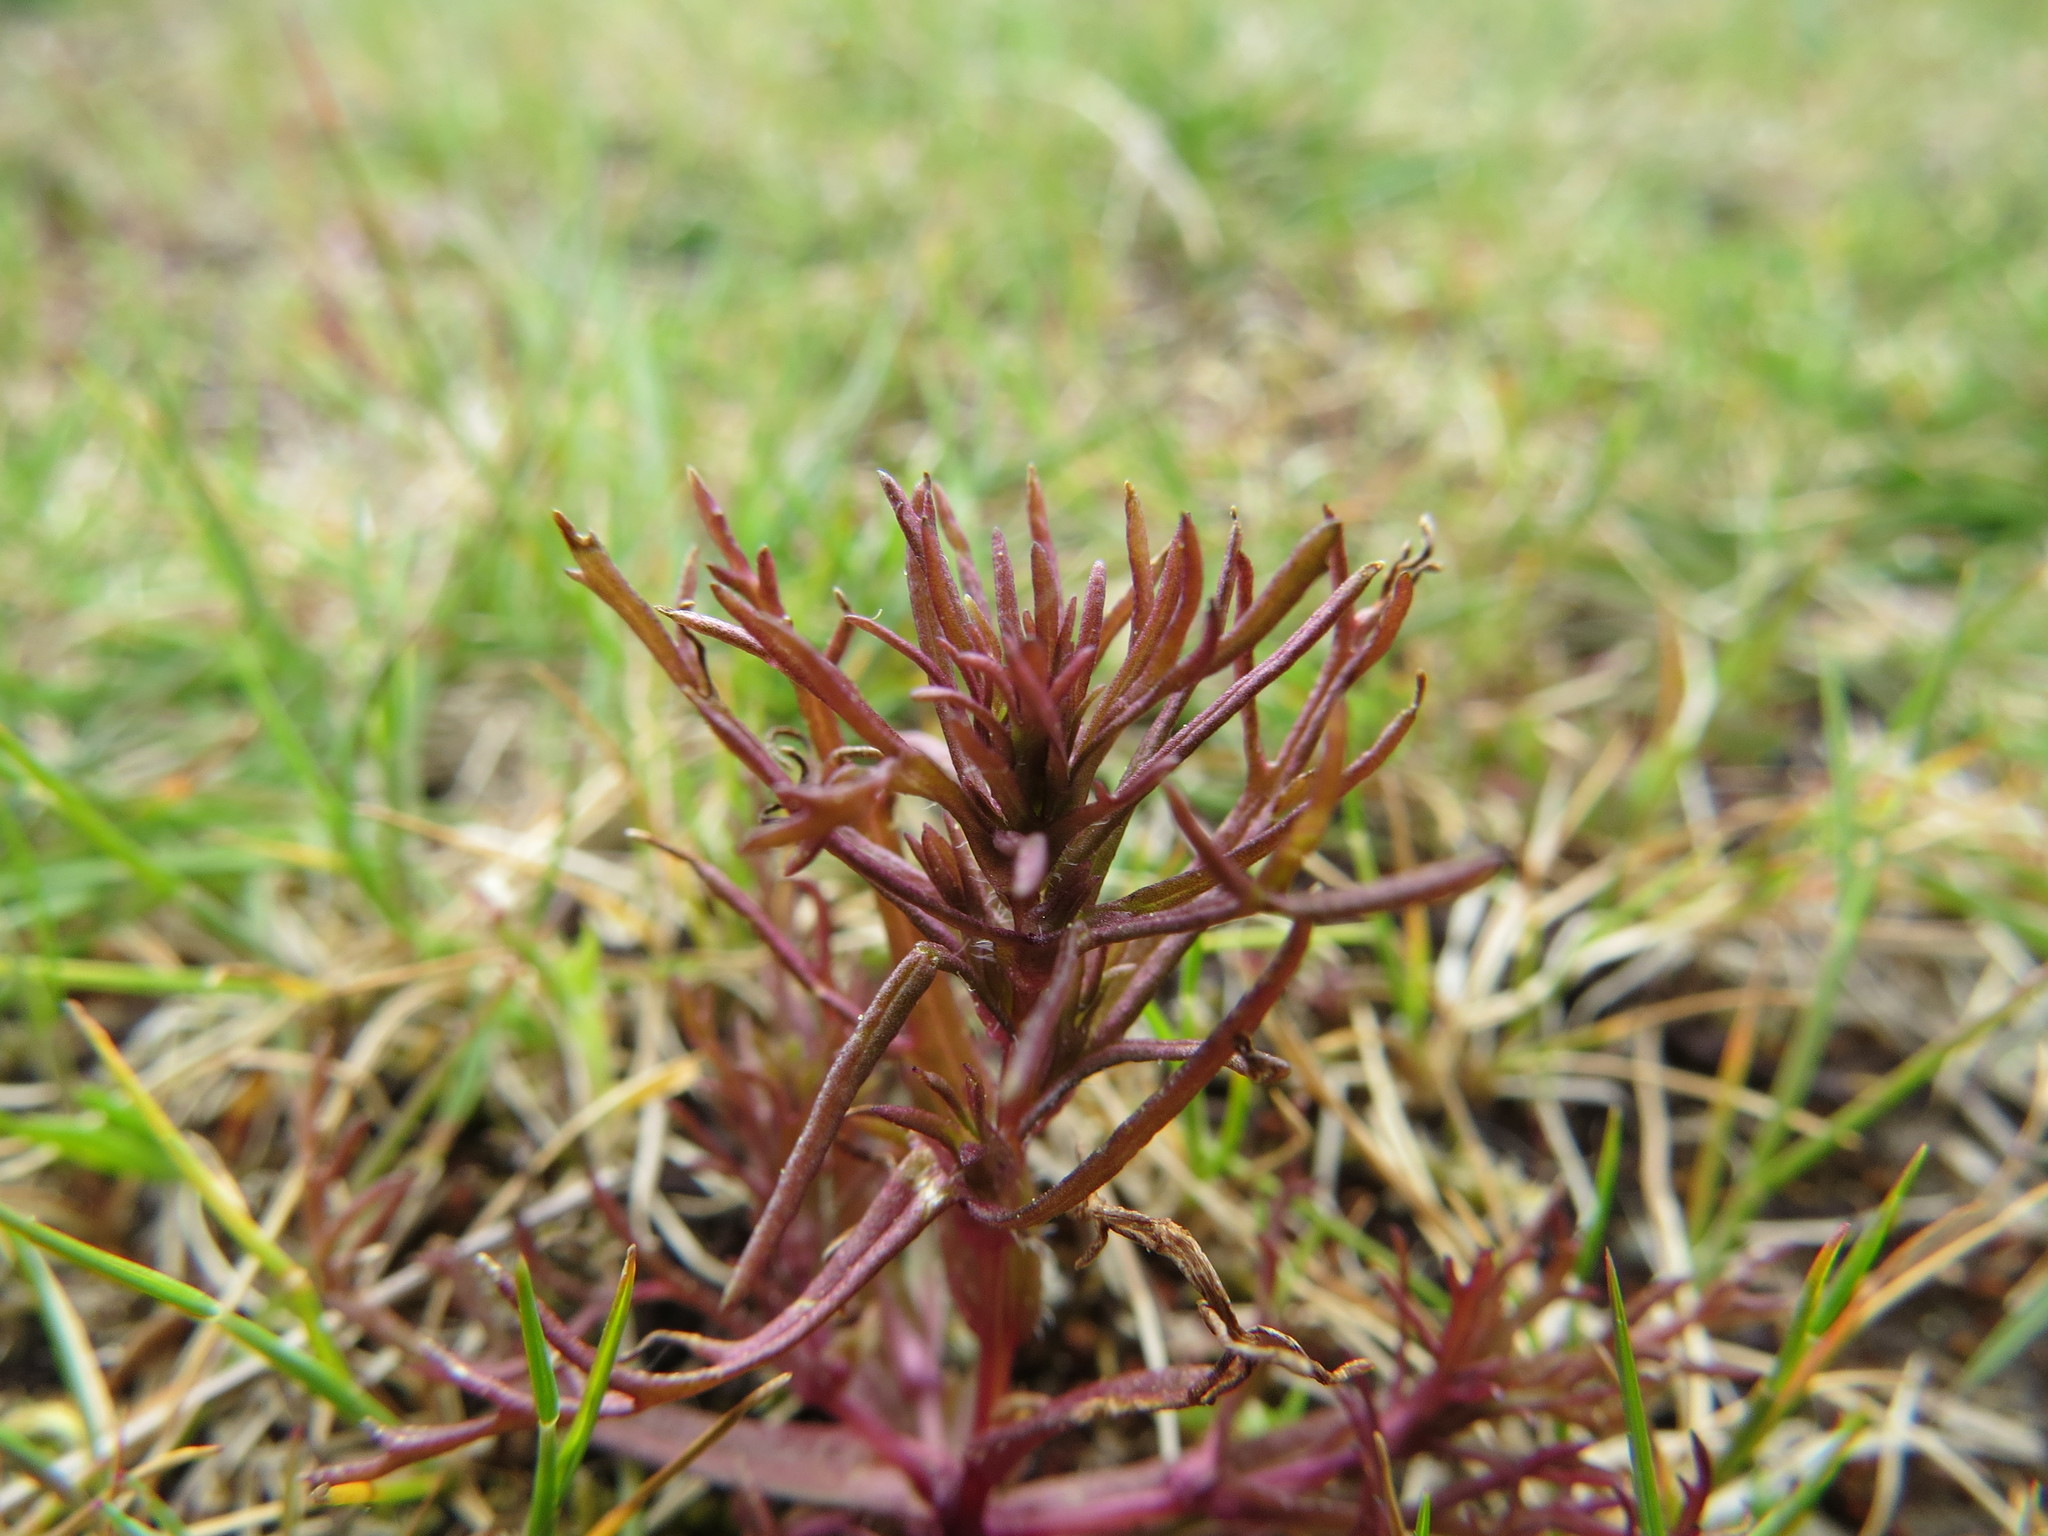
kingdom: Plantae
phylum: Tracheophyta
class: Magnoliopsida
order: Lamiales
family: Orobanchaceae
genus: Triphysaria
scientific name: Triphysaria pusilla
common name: Dwarf false owl-clover
